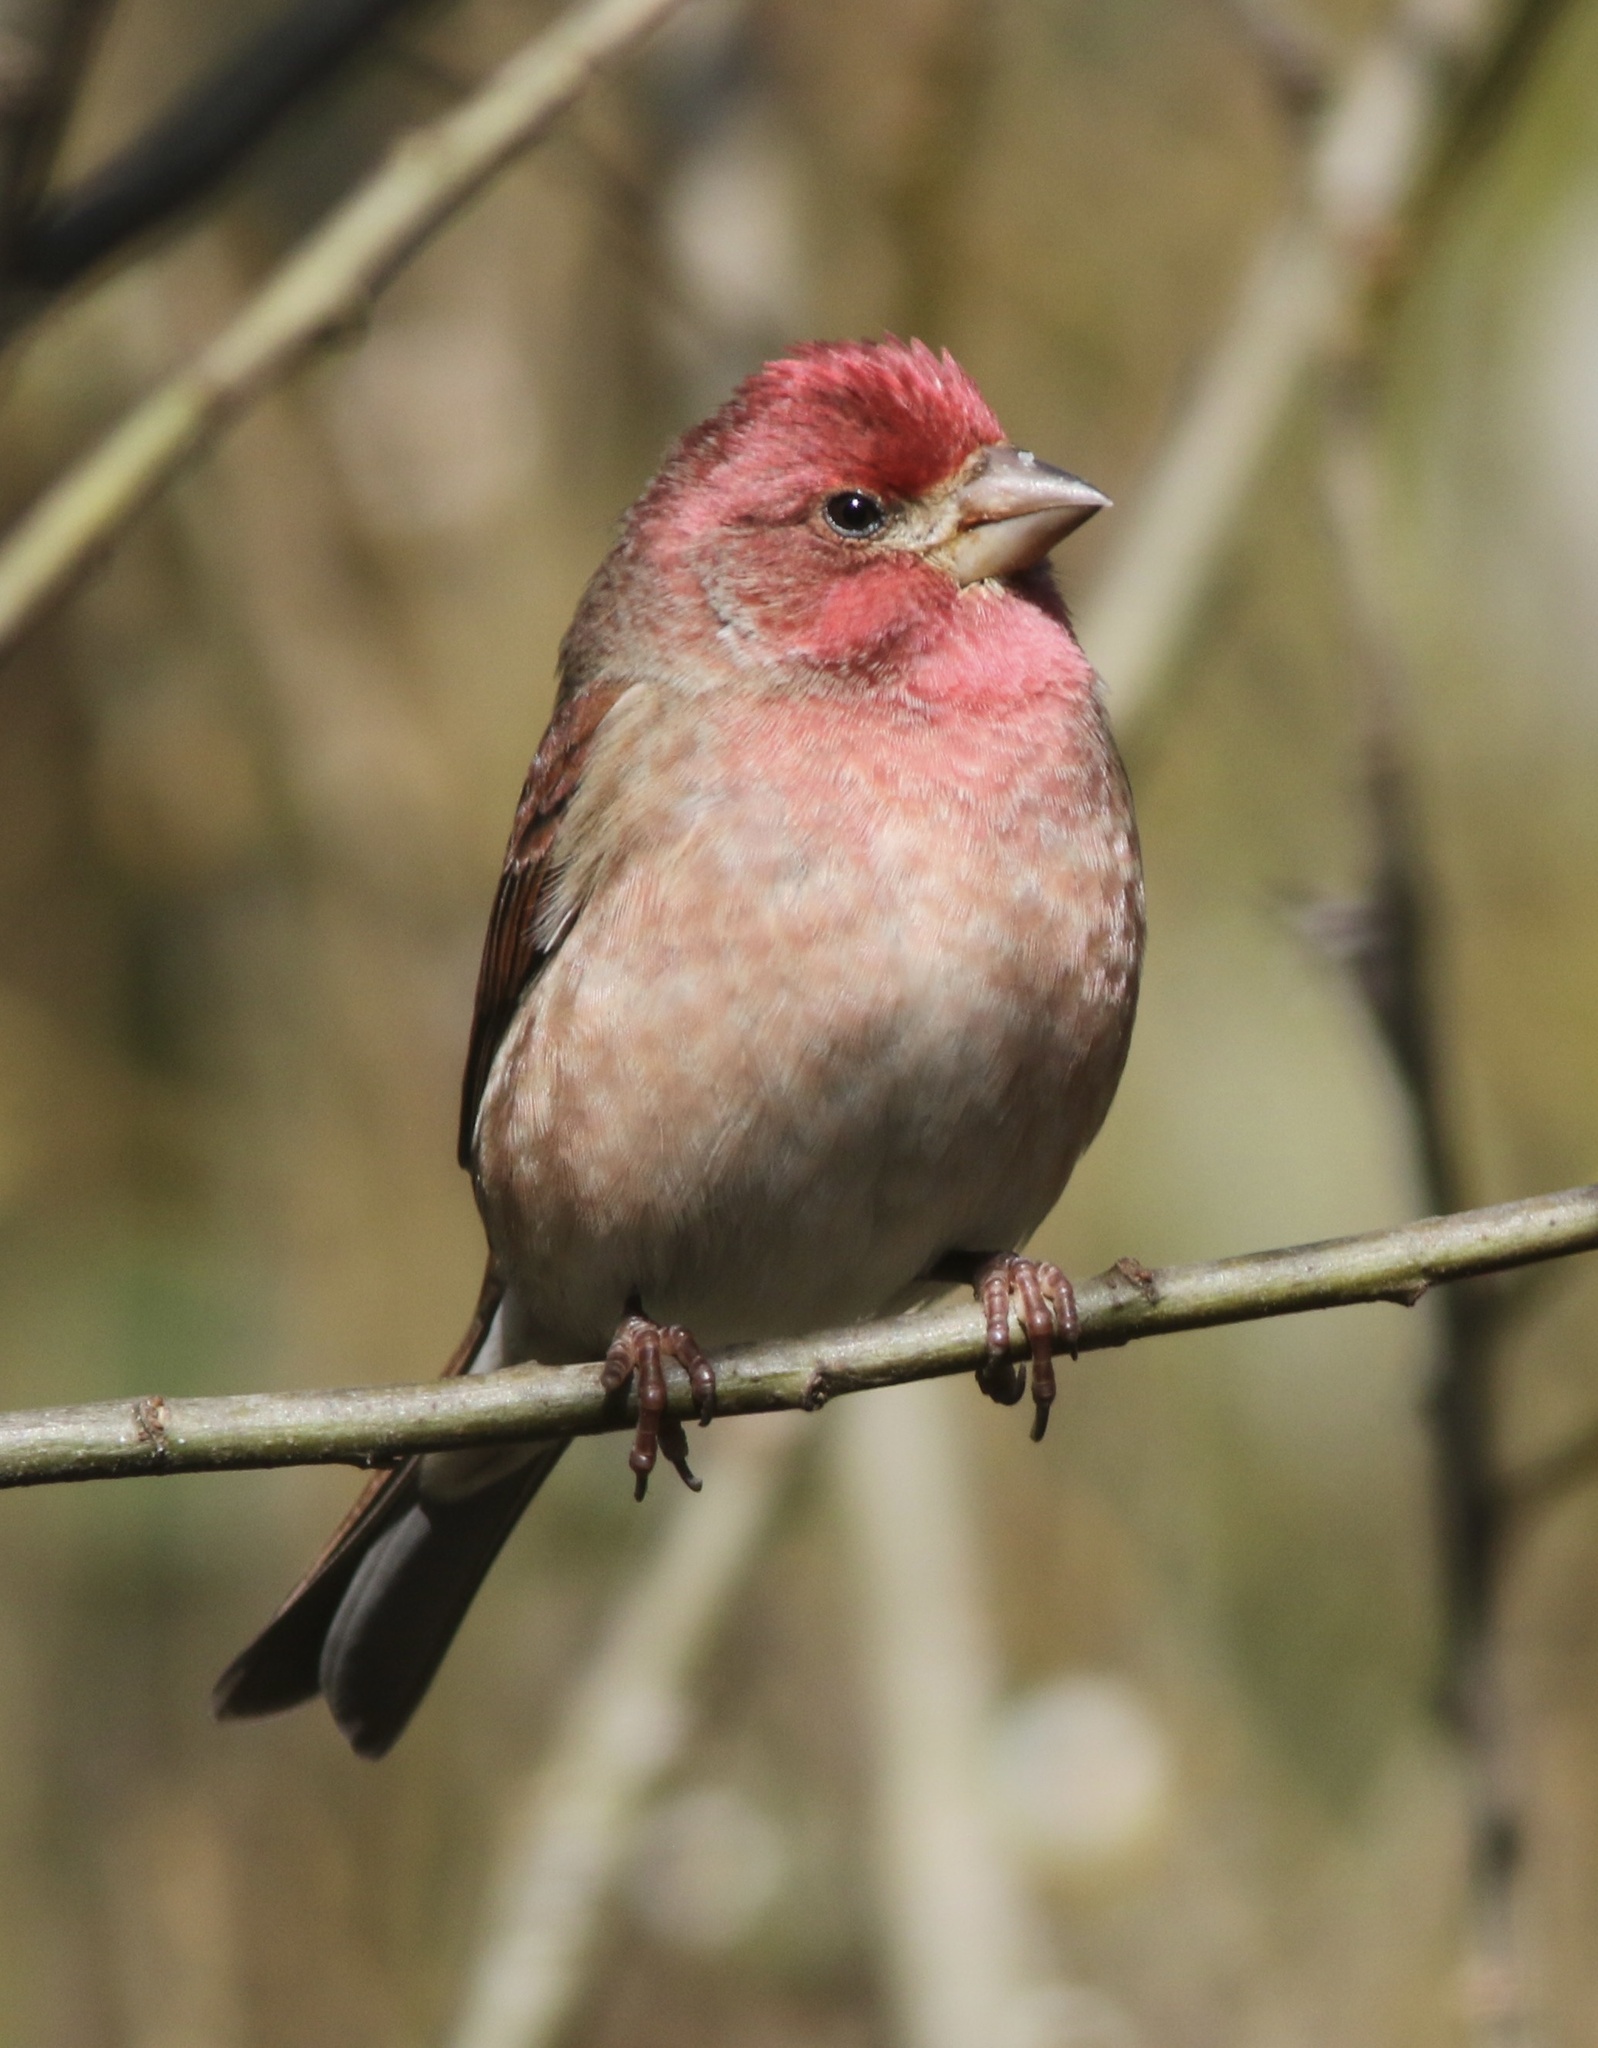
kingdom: Animalia
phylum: Chordata
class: Aves
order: Passeriformes
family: Fringillidae
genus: Haemorhous
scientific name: Haemorhous purpureus
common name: Purple finch
